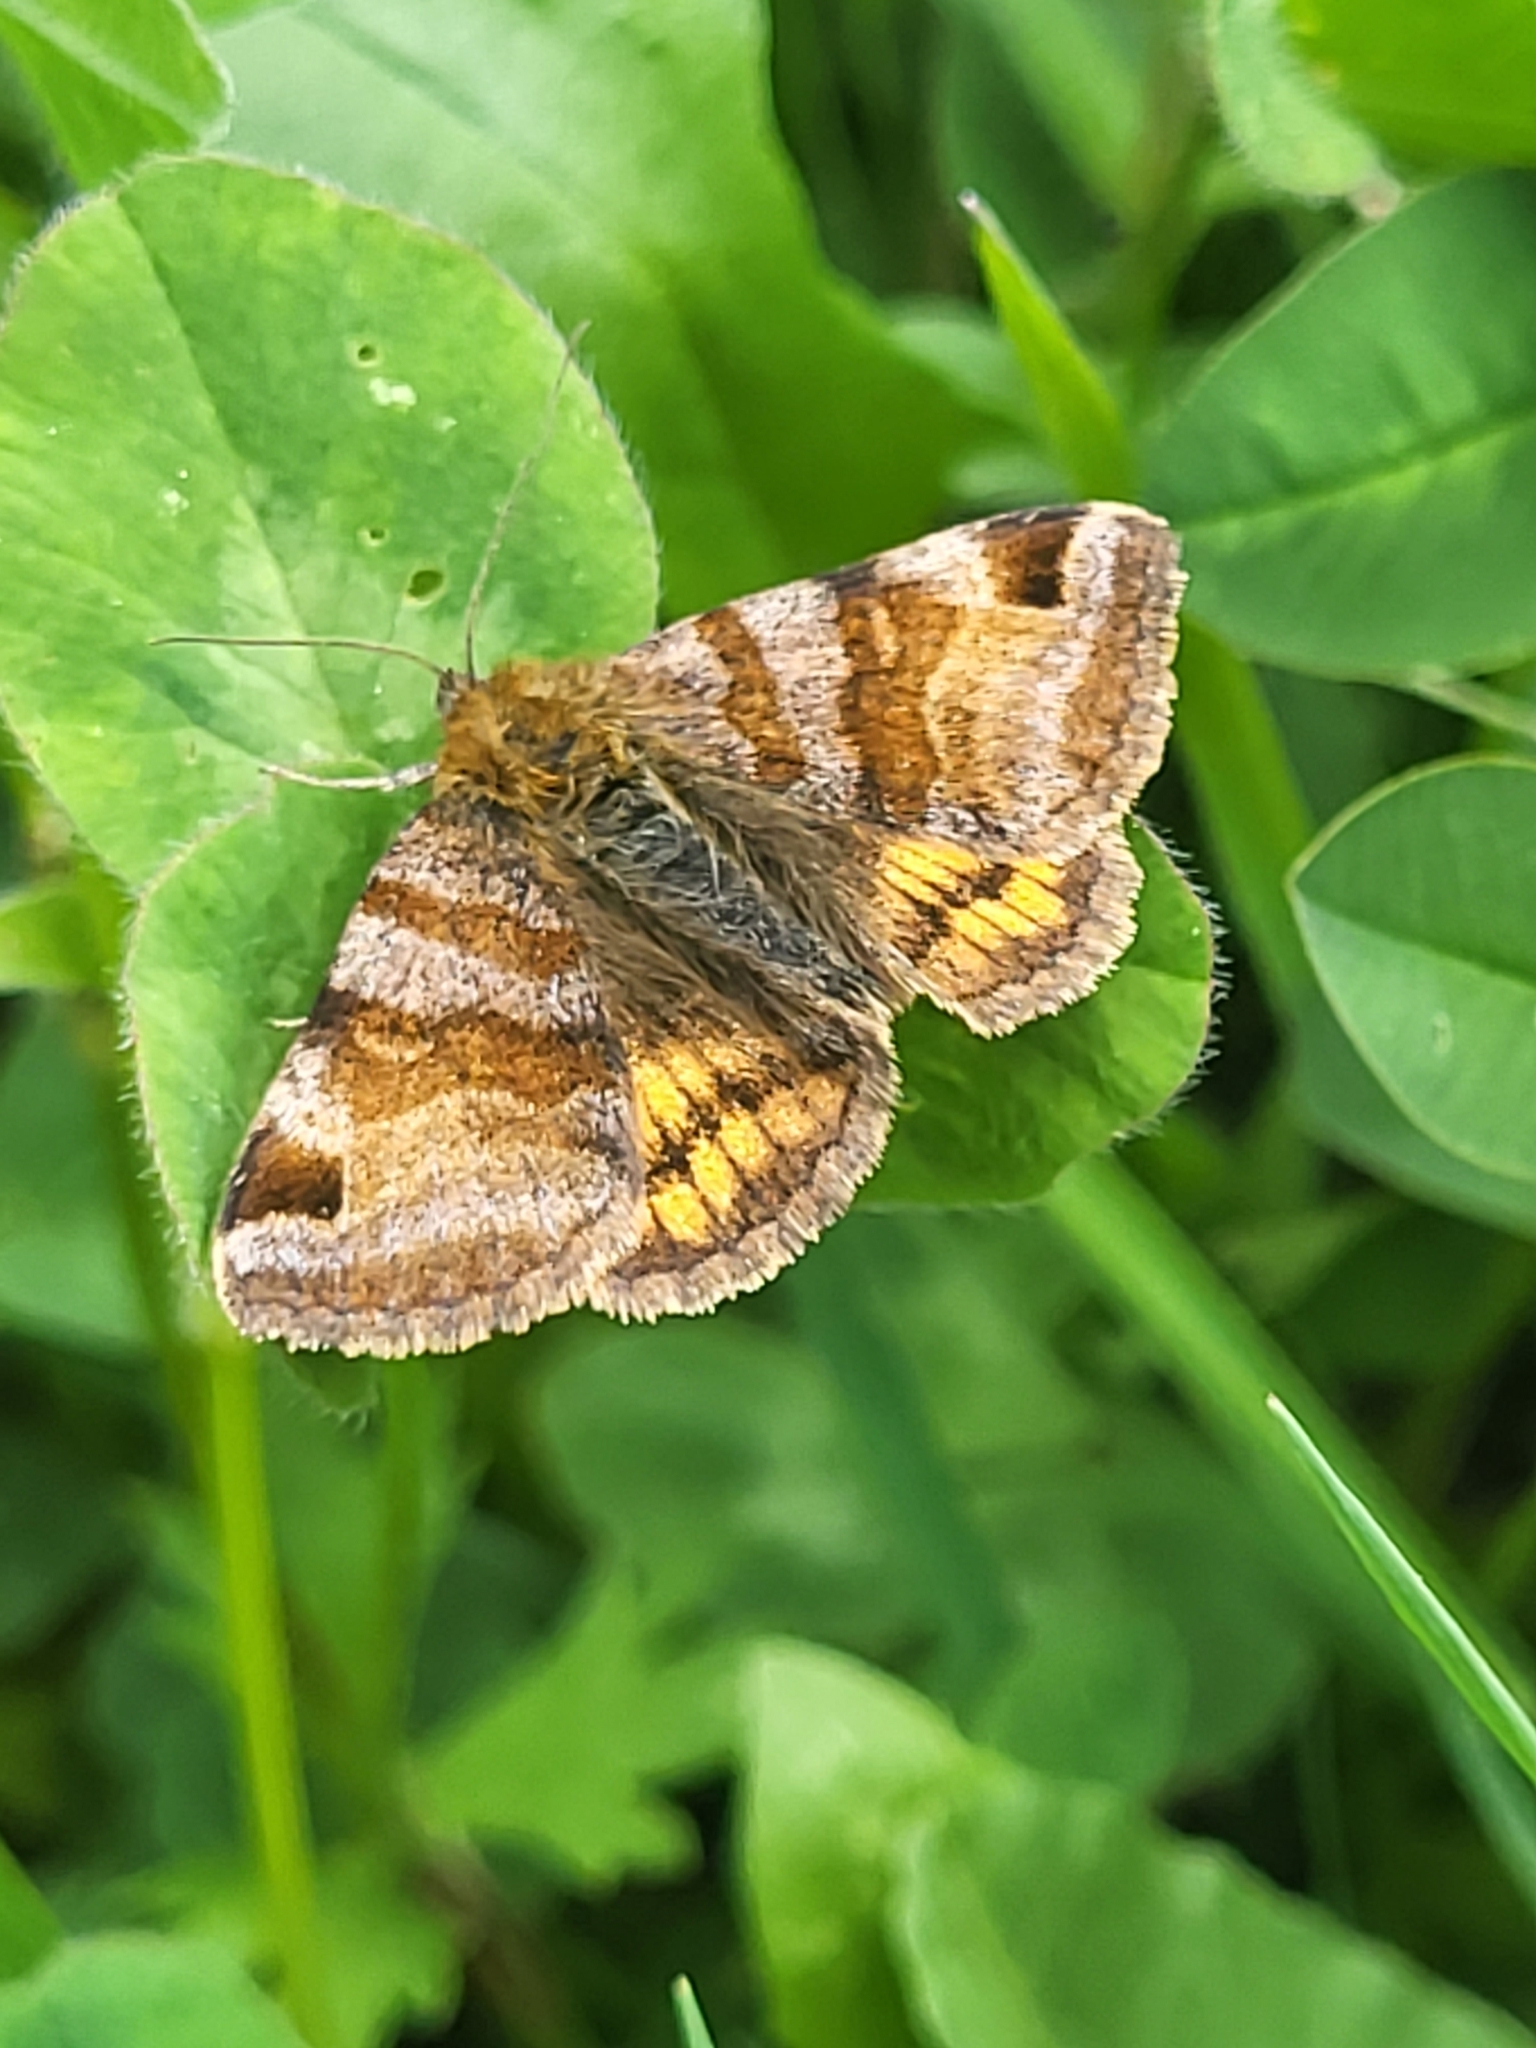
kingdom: Animalia
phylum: Arthropoda
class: Insecta
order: Lepidoptera
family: Erebidae
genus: Euclidia
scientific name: Euclidia glyphica
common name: Burnet companion
